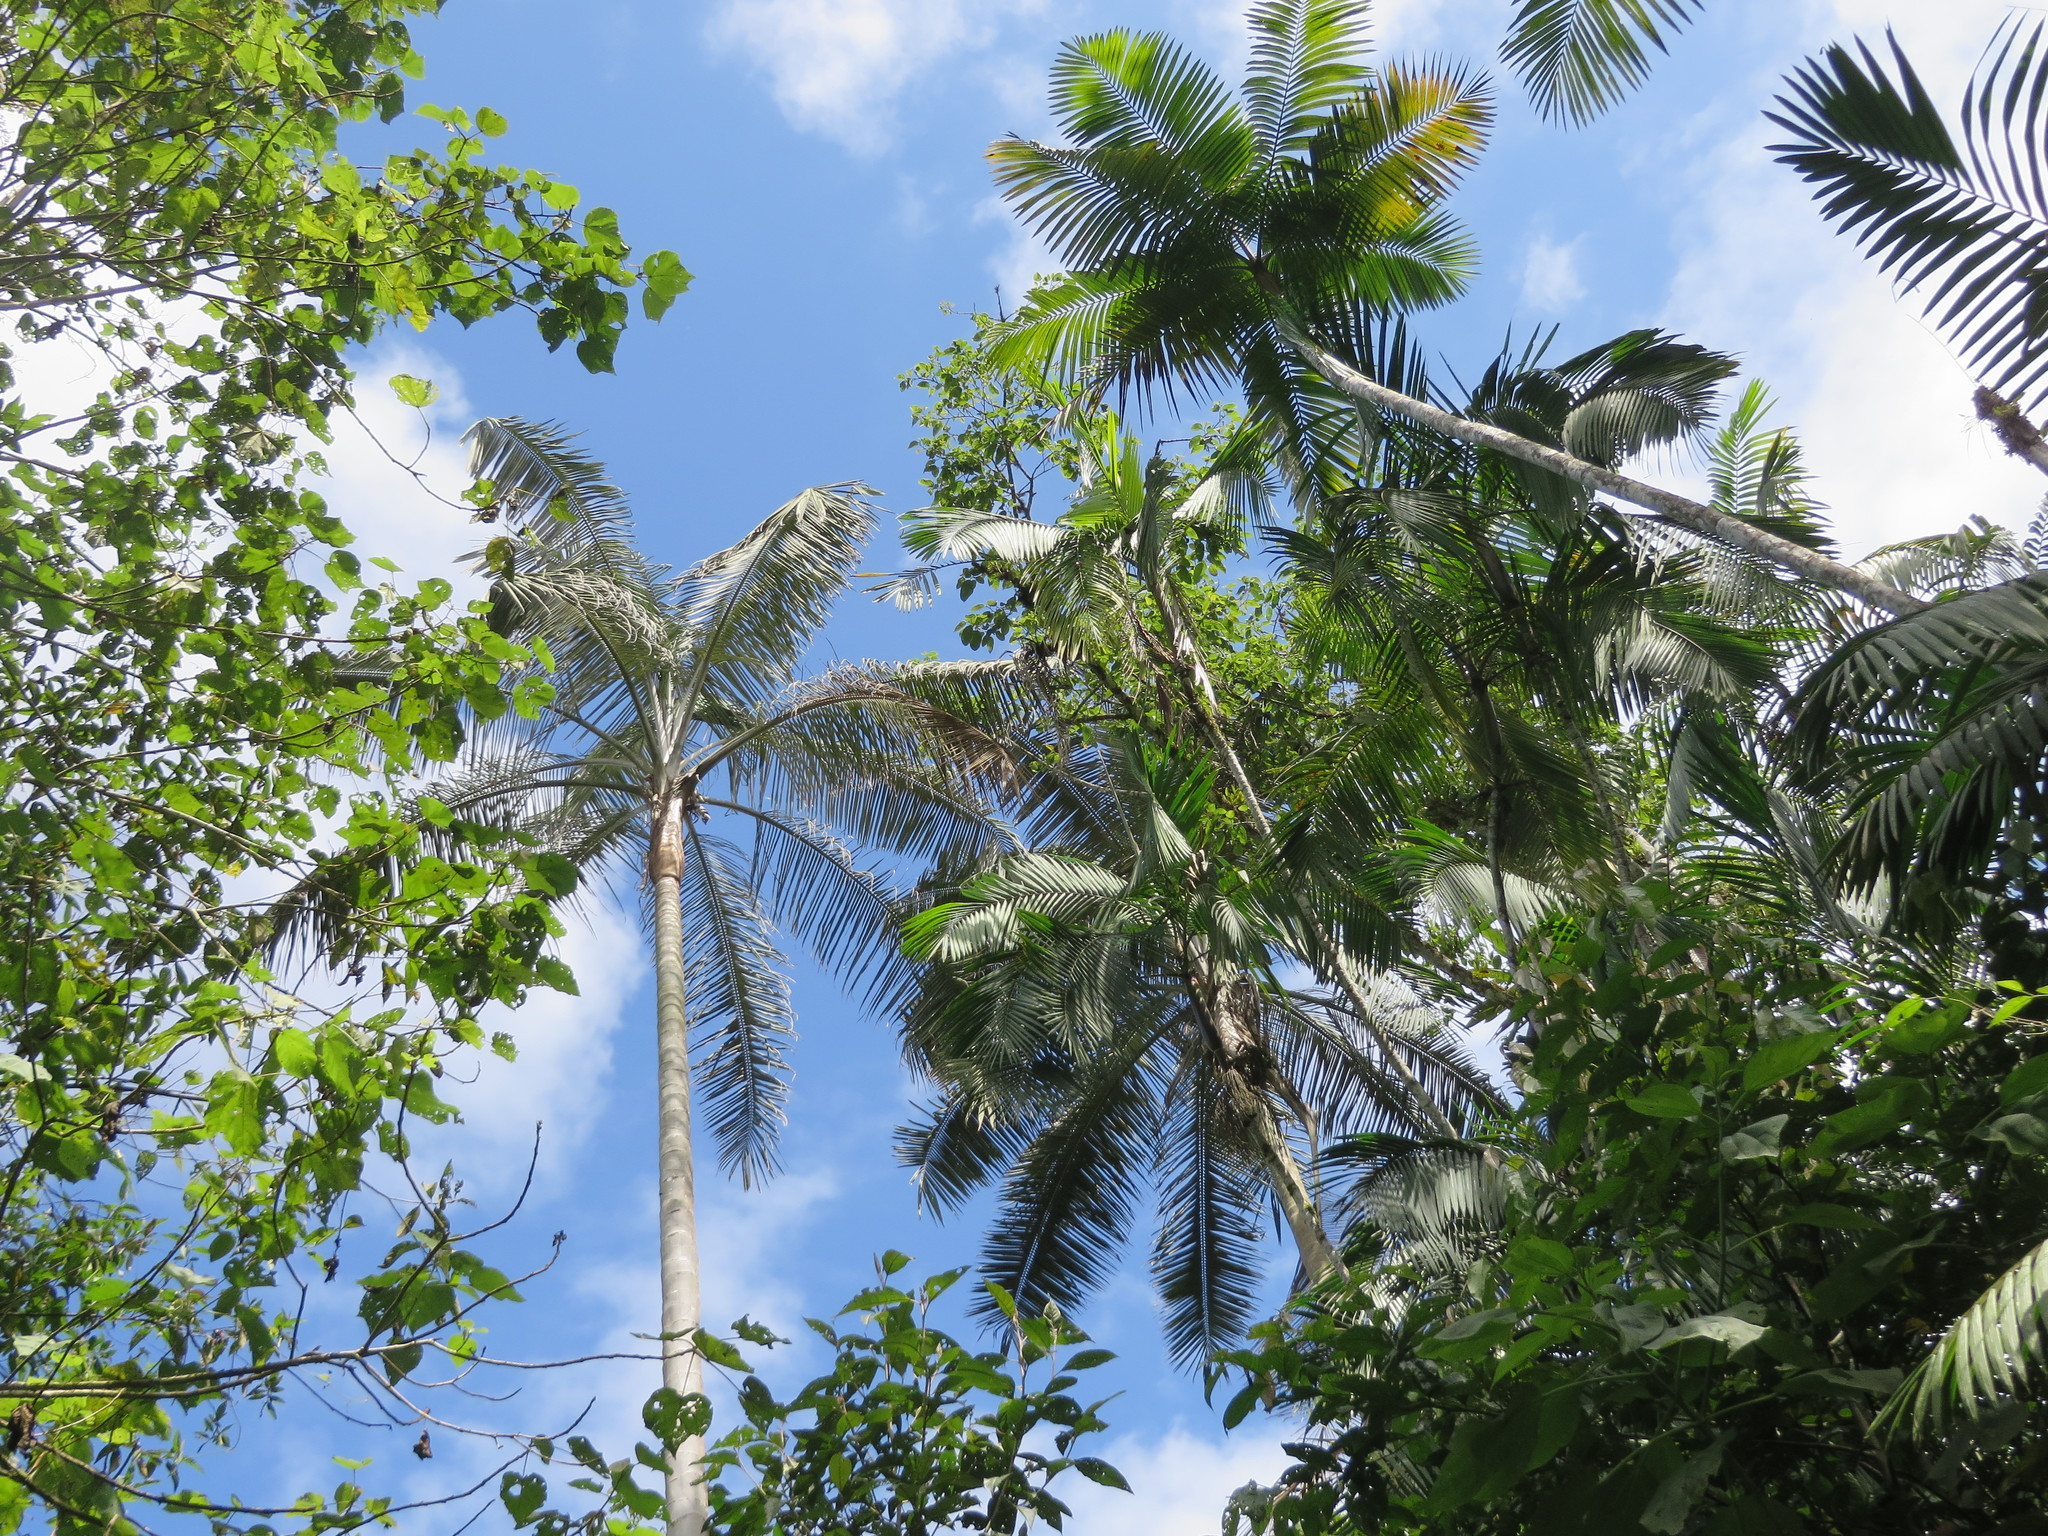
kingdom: Plantae
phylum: Tracheophyta
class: Liliopsida
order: Arecales
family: Arecaceae
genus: Ceroxylon
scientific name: Ceroxylon echinulatum
